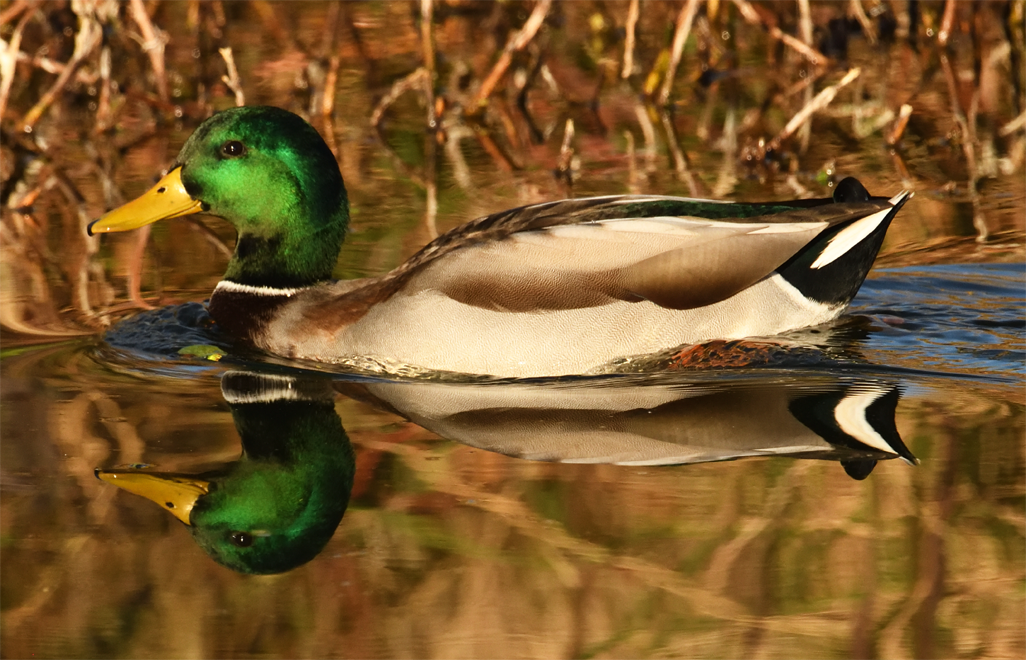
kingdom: Animalia
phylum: Chordata
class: Aves
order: Anseriformes
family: Anatidae
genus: Anas
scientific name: Anas platyrhynchos
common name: Mallard
